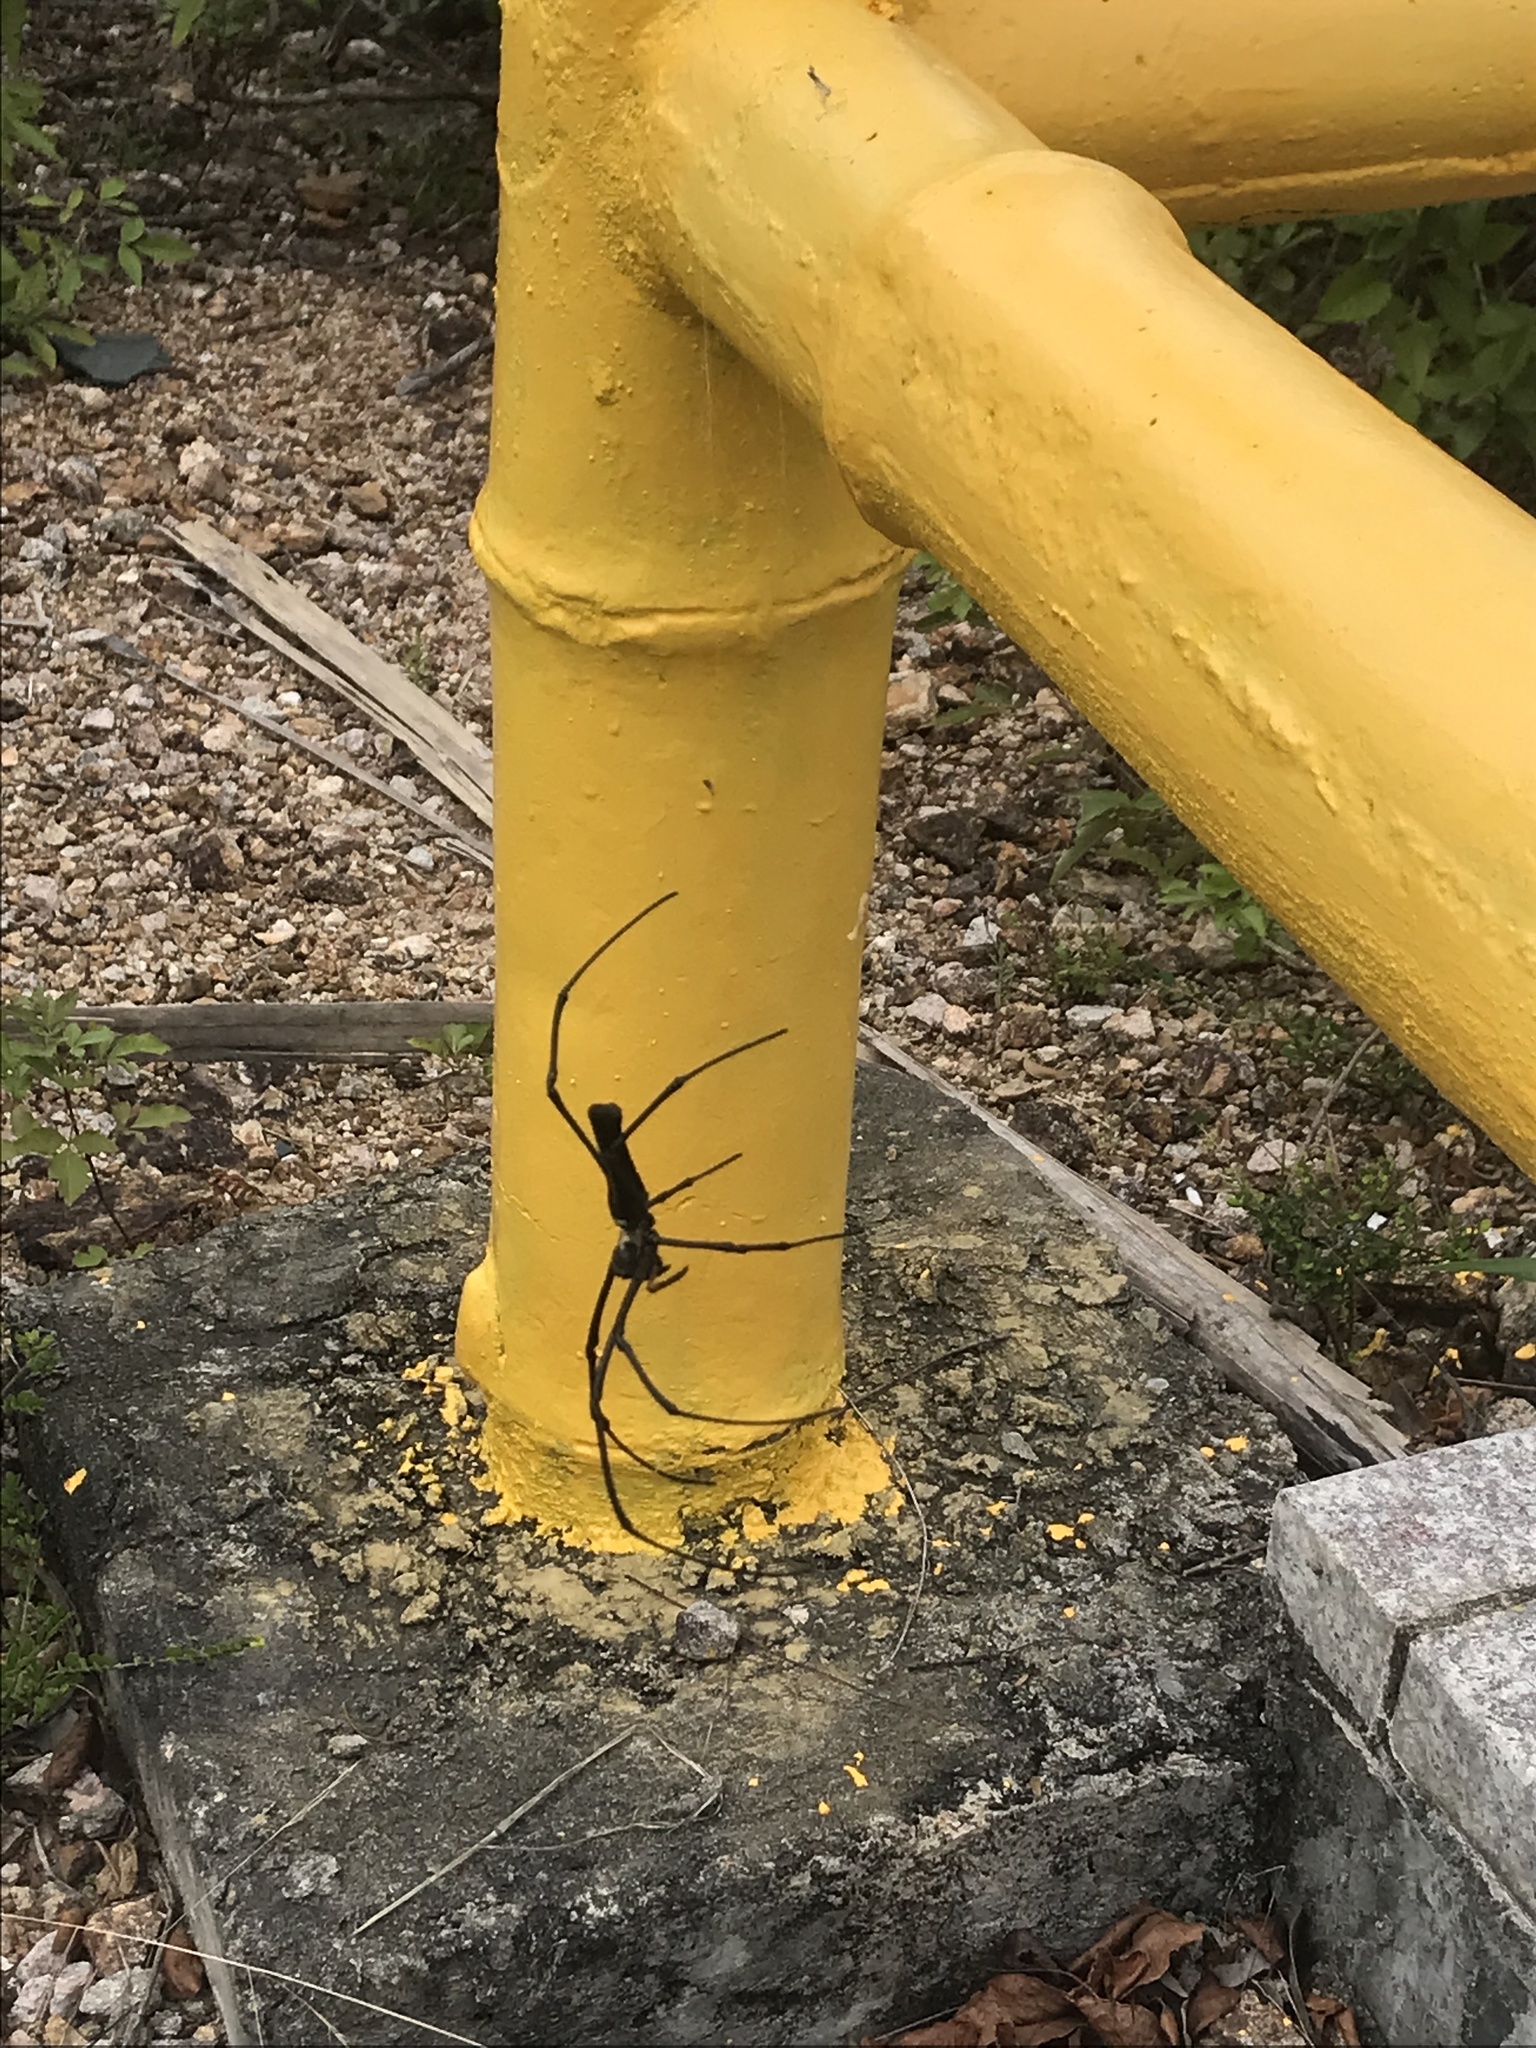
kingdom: Animalia
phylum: Arthropoda
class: Arachnida
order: Araneae
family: Araneidae
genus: Nephila
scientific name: Nephila pilipes
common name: Giant golden orb weaver
